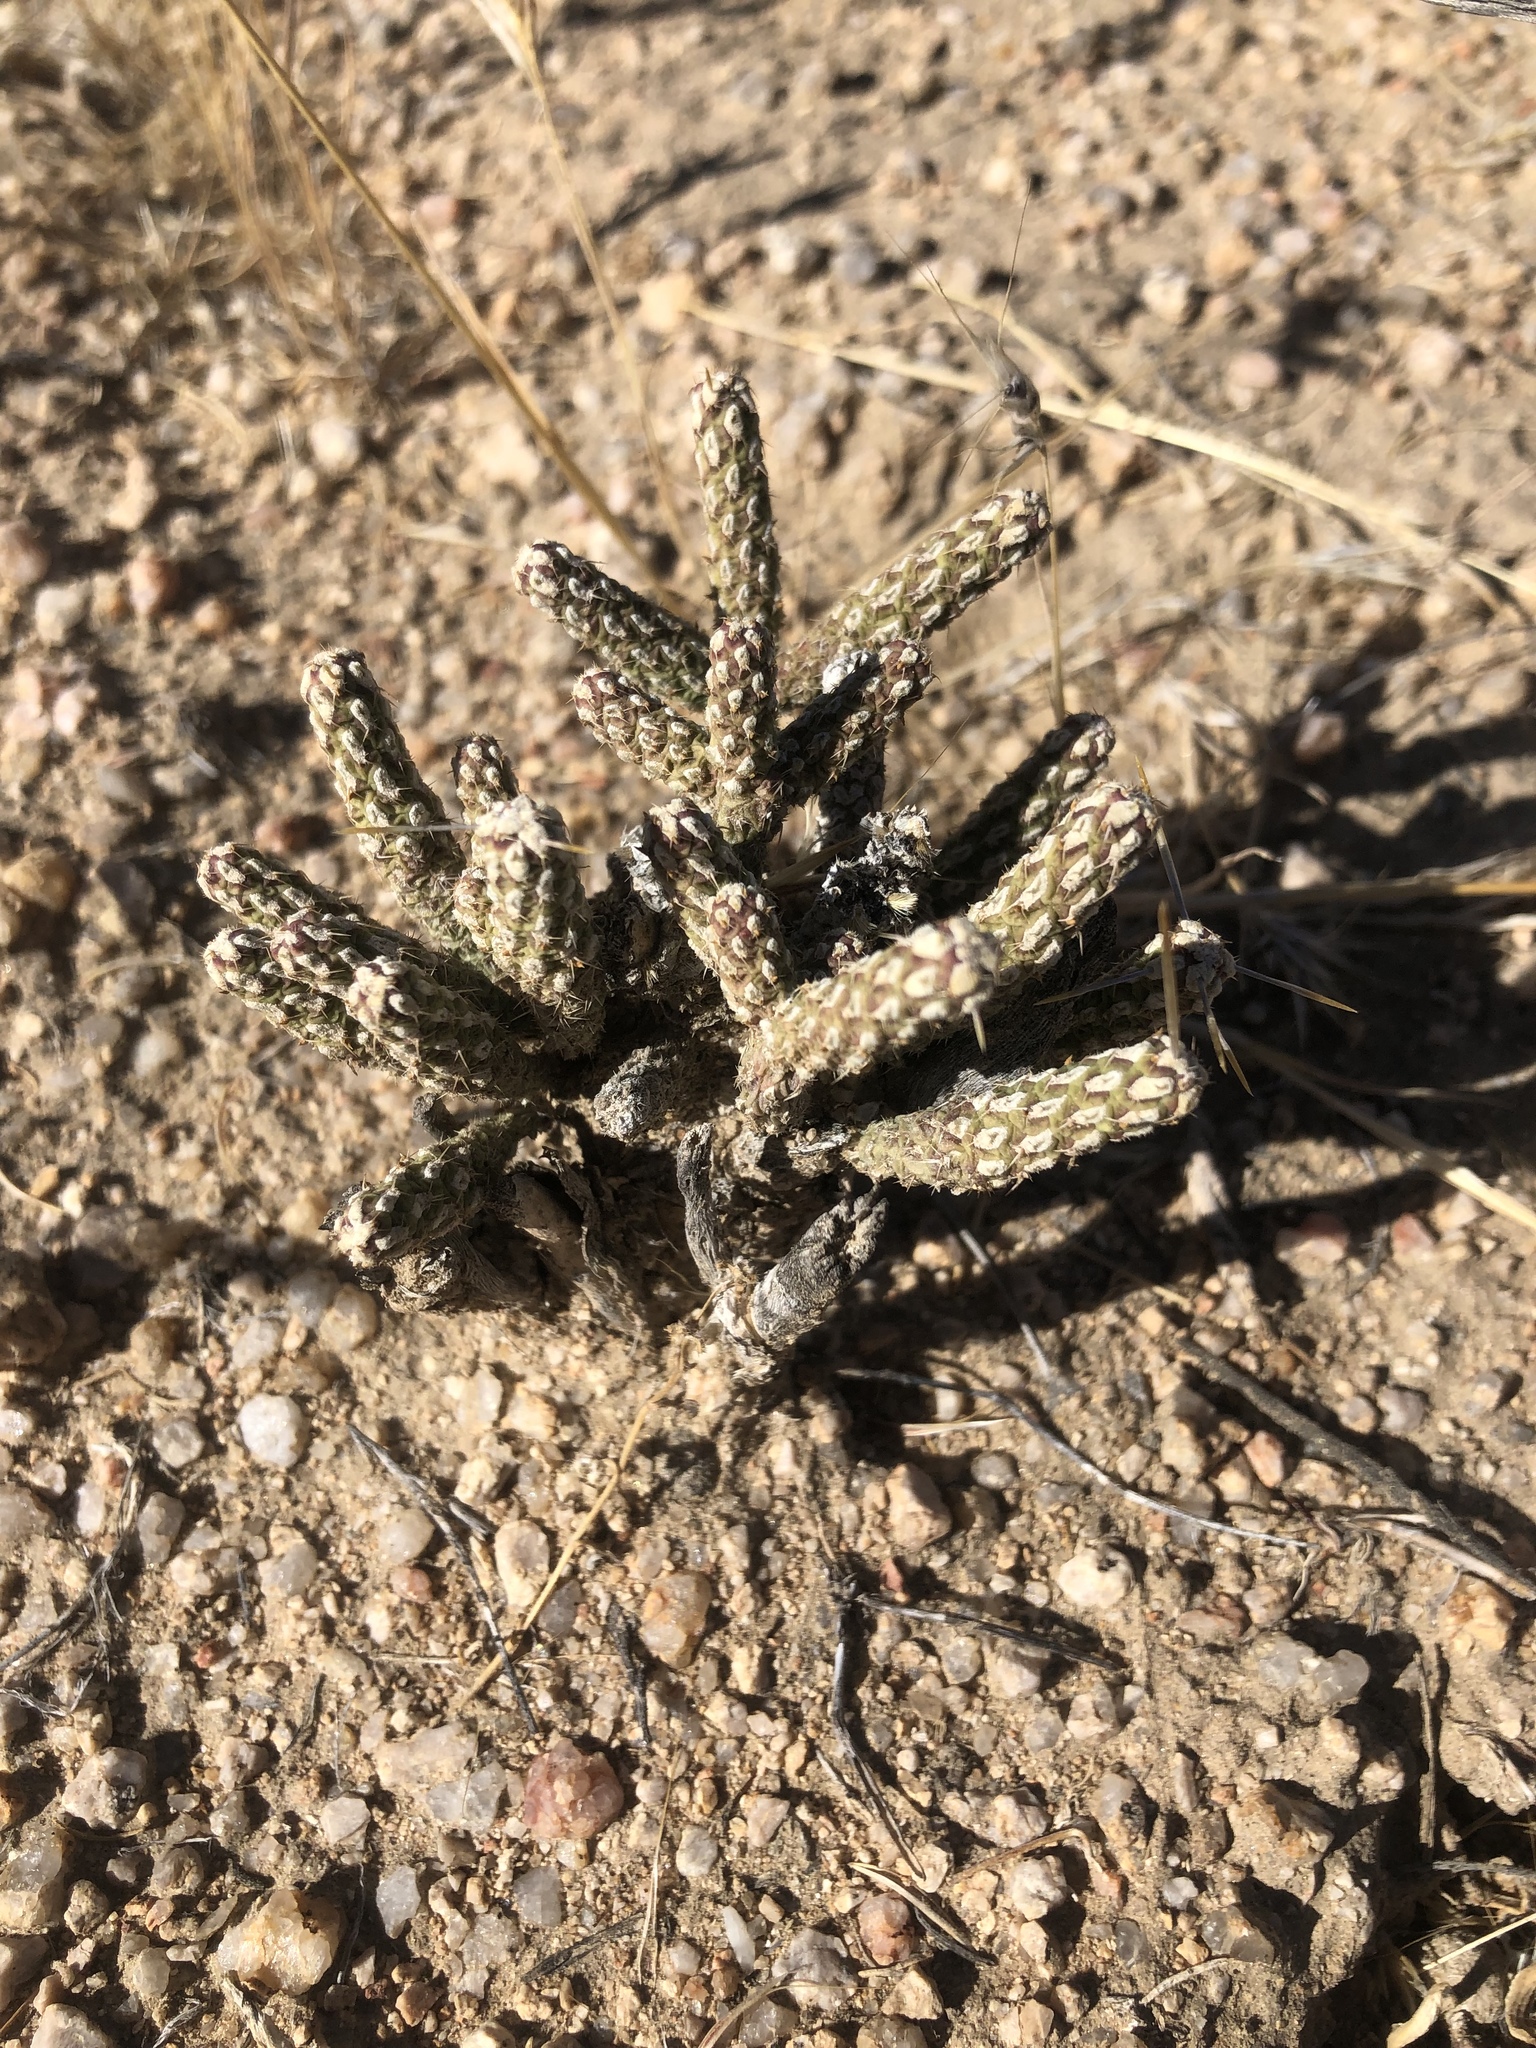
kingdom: Plantae
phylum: Tracheophyta
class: Magnoliopsida
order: Caryophyllales
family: Cactaceae
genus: Cylindropuntia
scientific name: Cylindropuntia ramosissima
